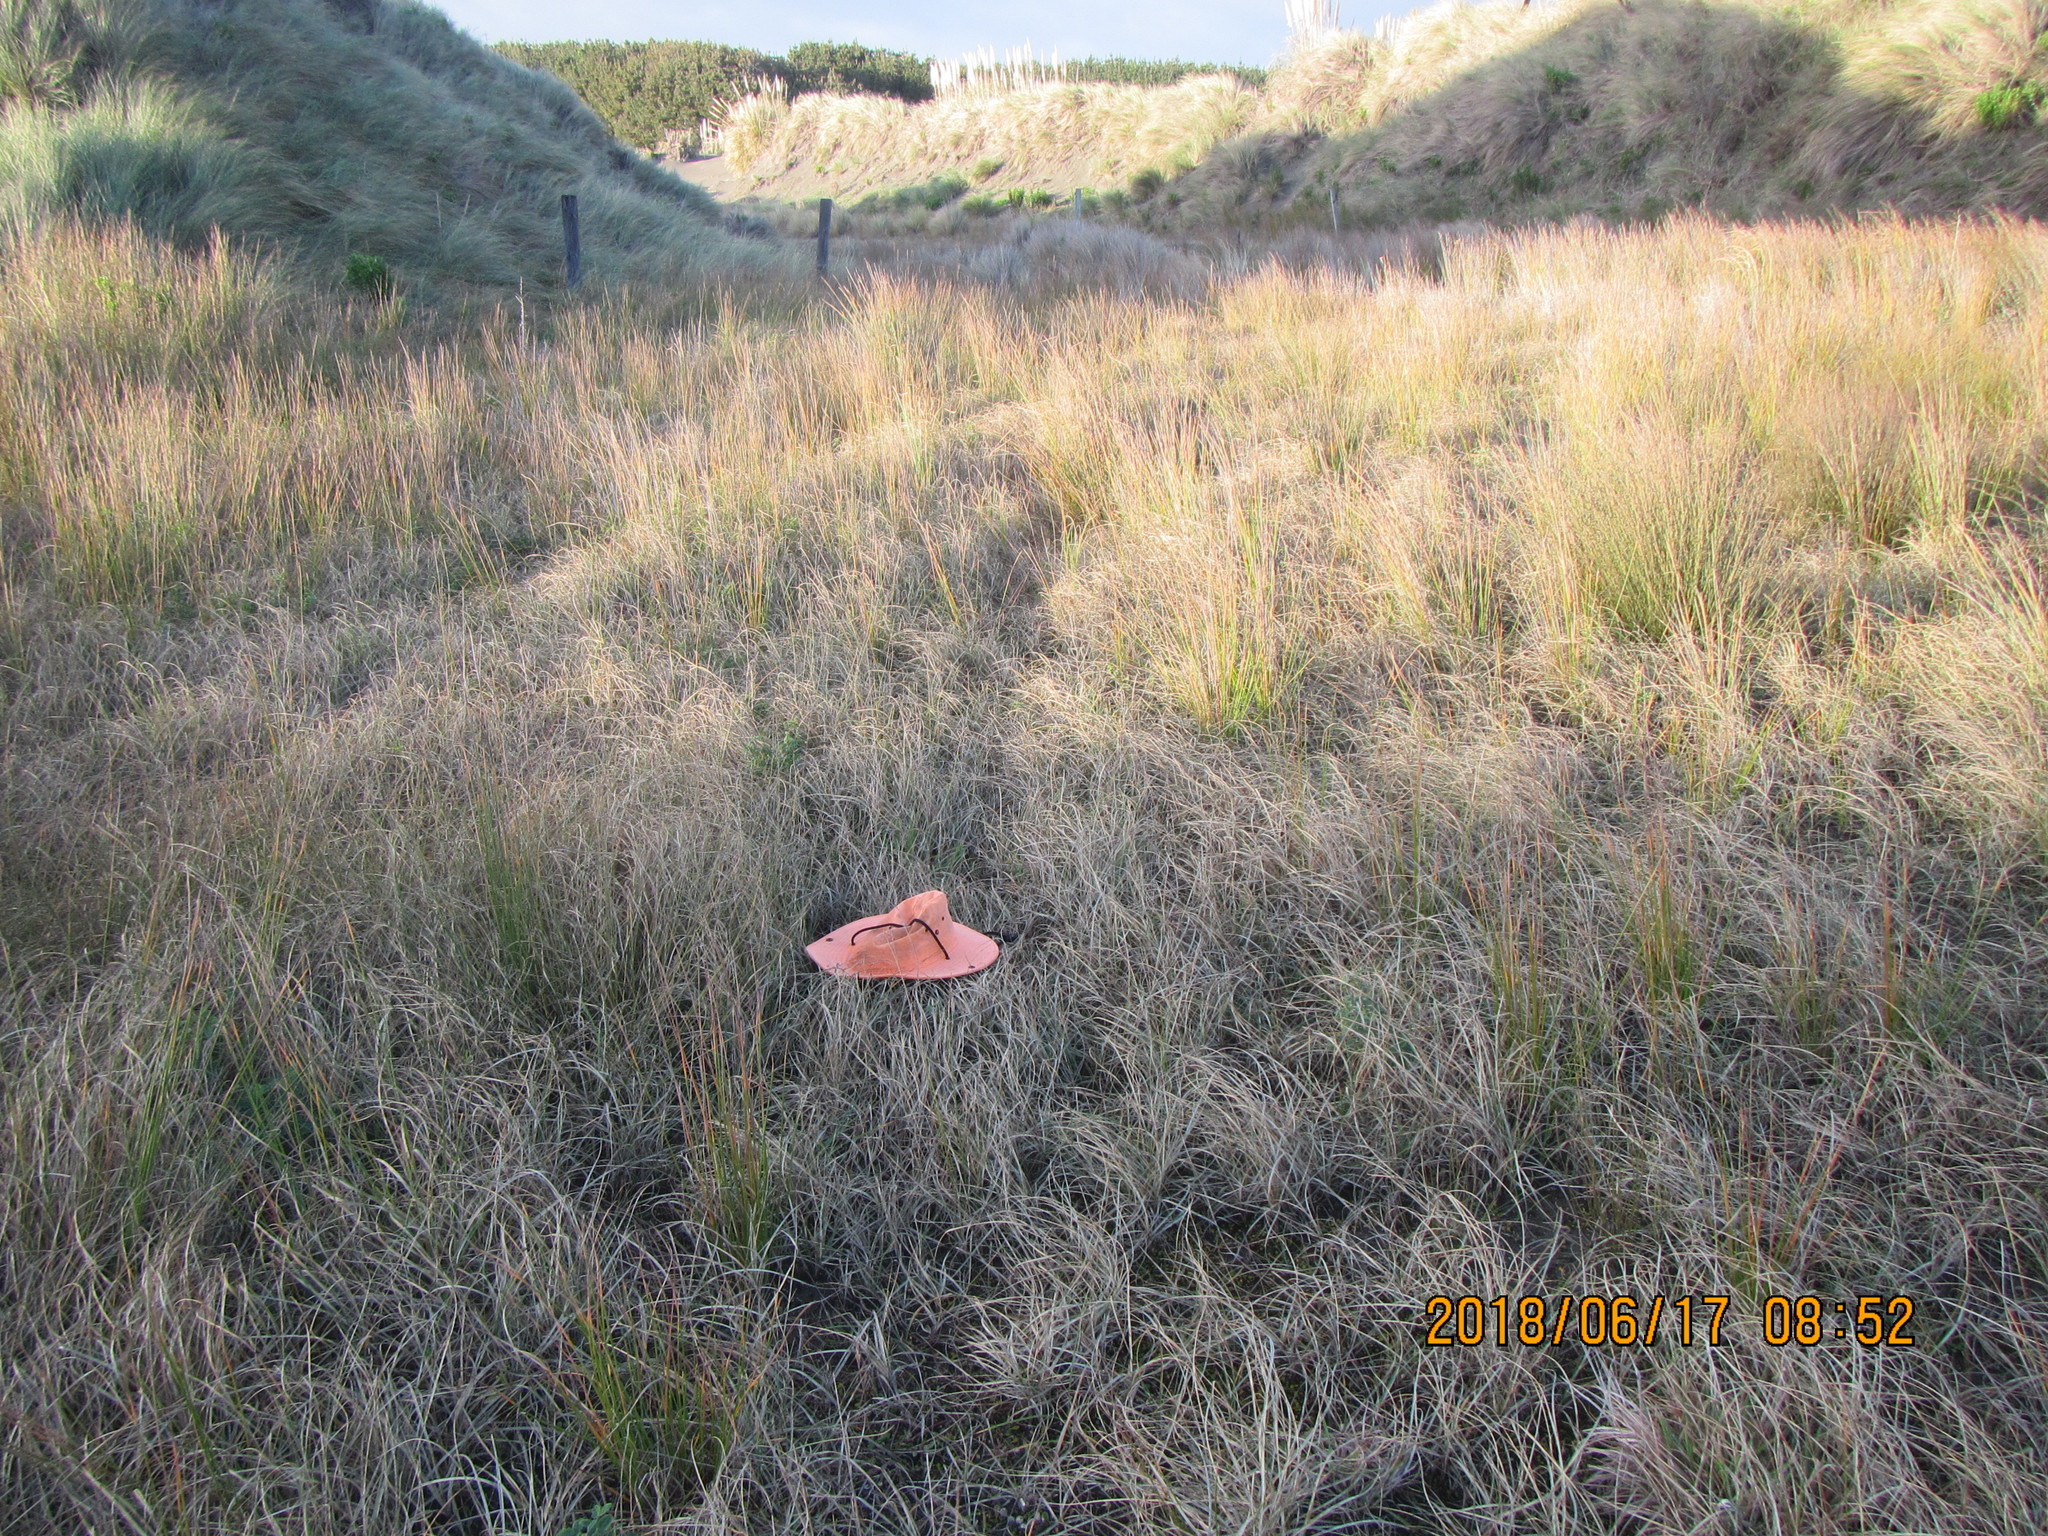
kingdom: Plantae
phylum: Tracheophyta
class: Liliopsida
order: Poales
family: Cyperaceae
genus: Carex
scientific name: Carex pumila
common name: Dwarf sedge
